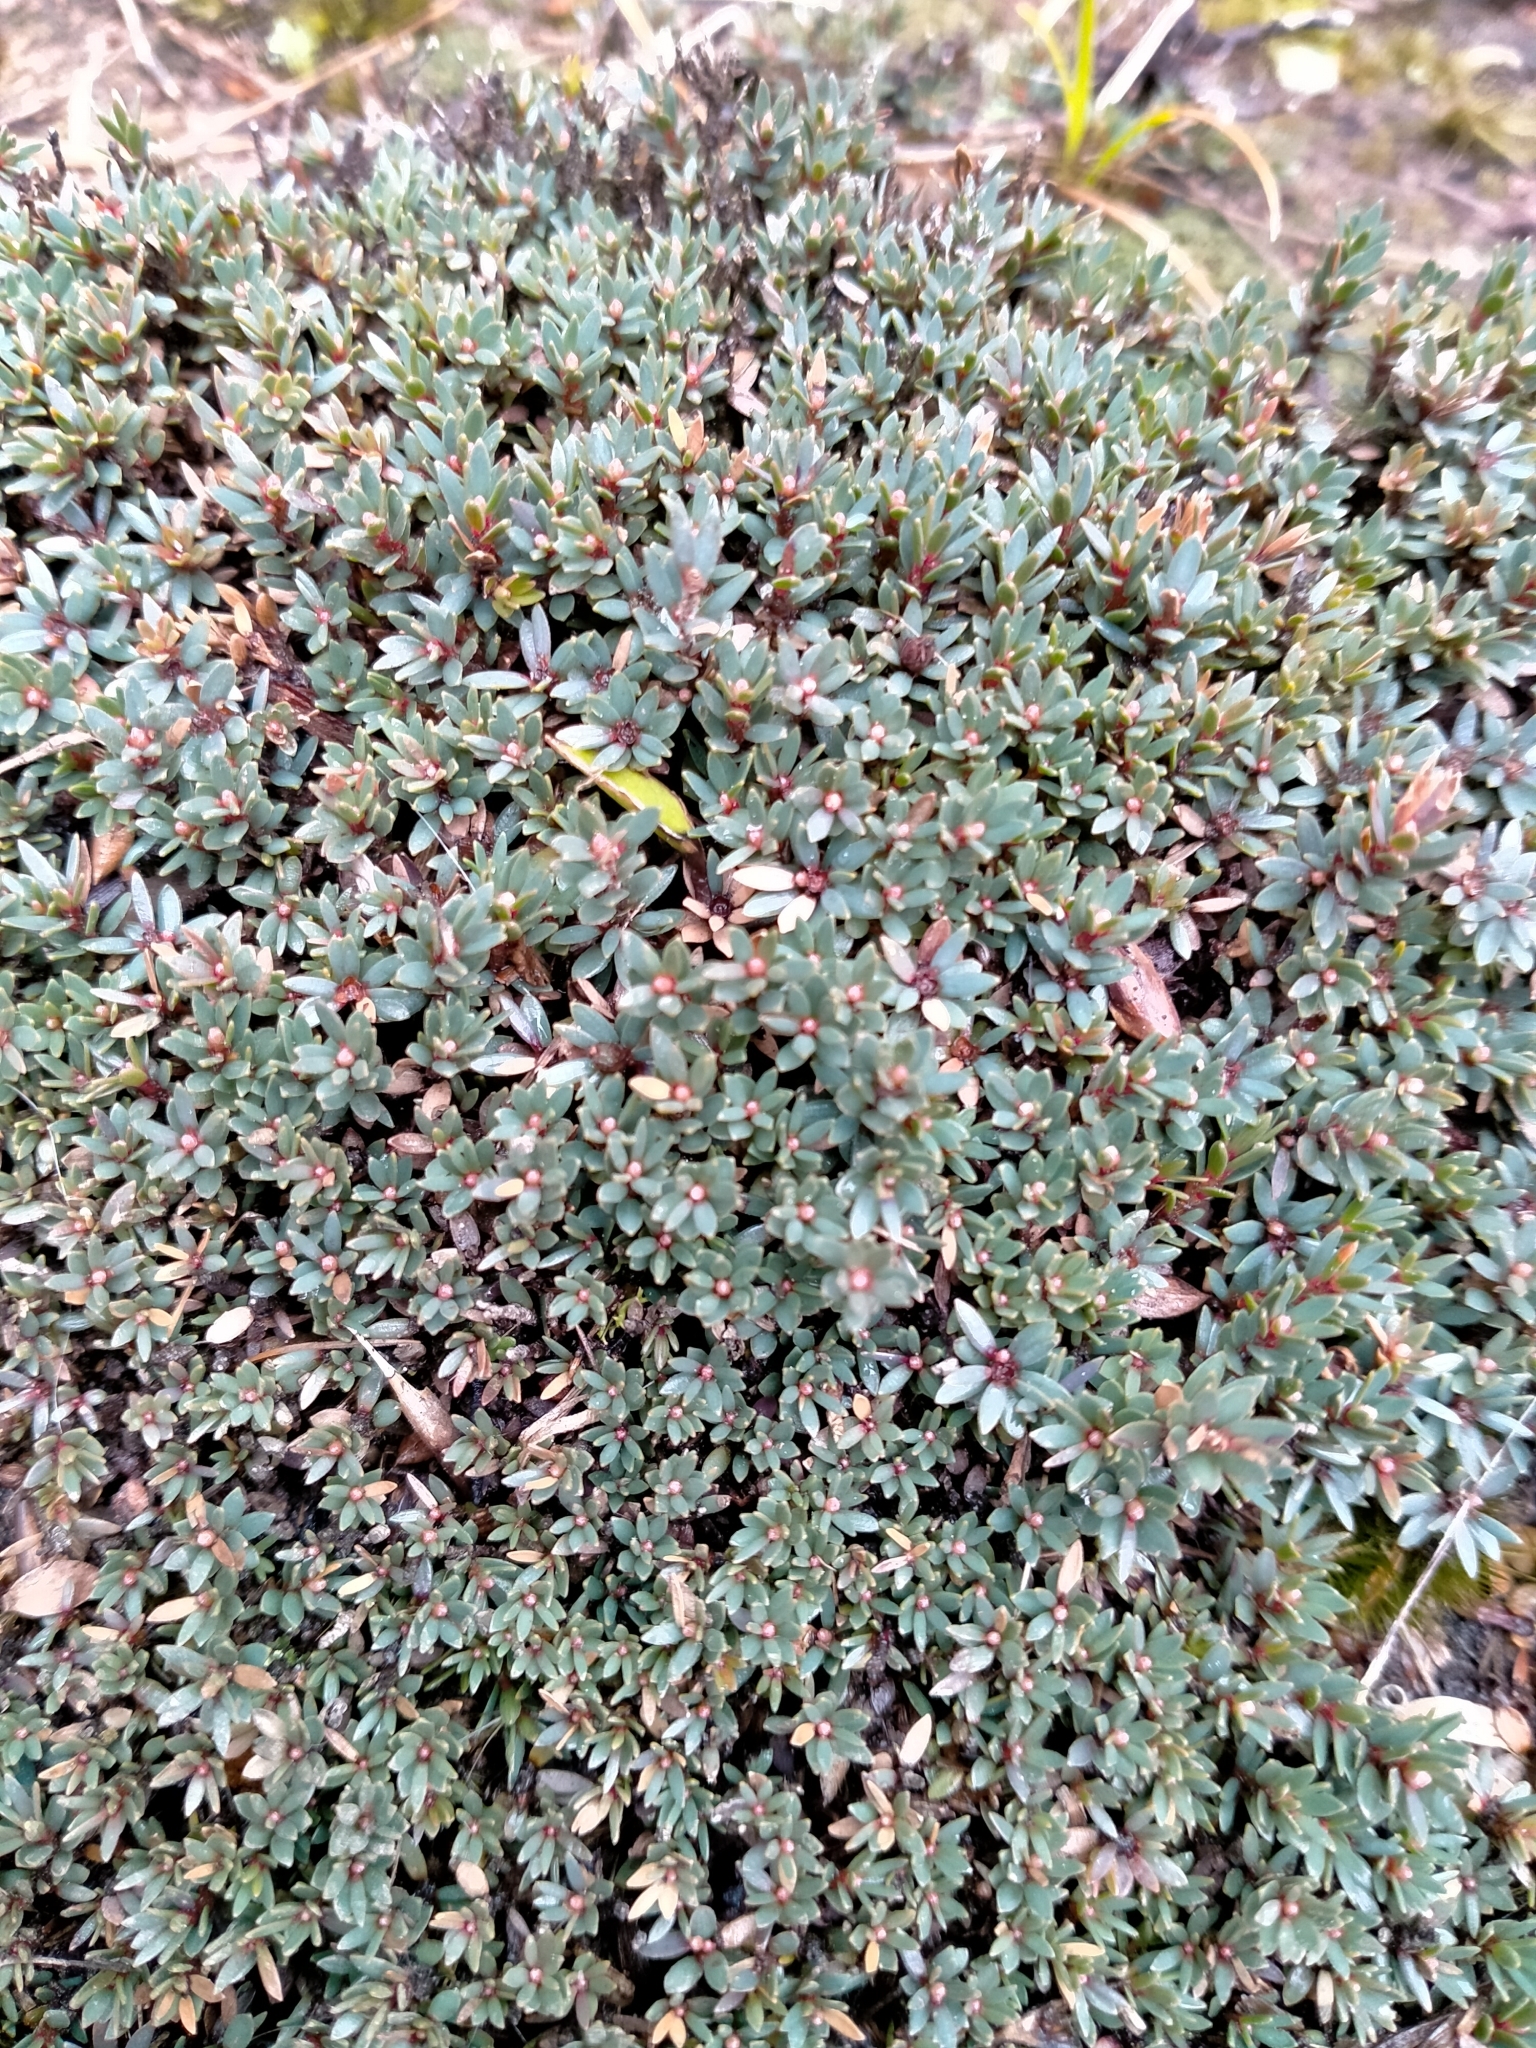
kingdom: Plantae
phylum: Tracheophyta
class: Magnoliopsida
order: Ericales
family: Ericaceae
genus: Pentachondra
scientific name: Pentachondra pumila
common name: Carpet-heath
